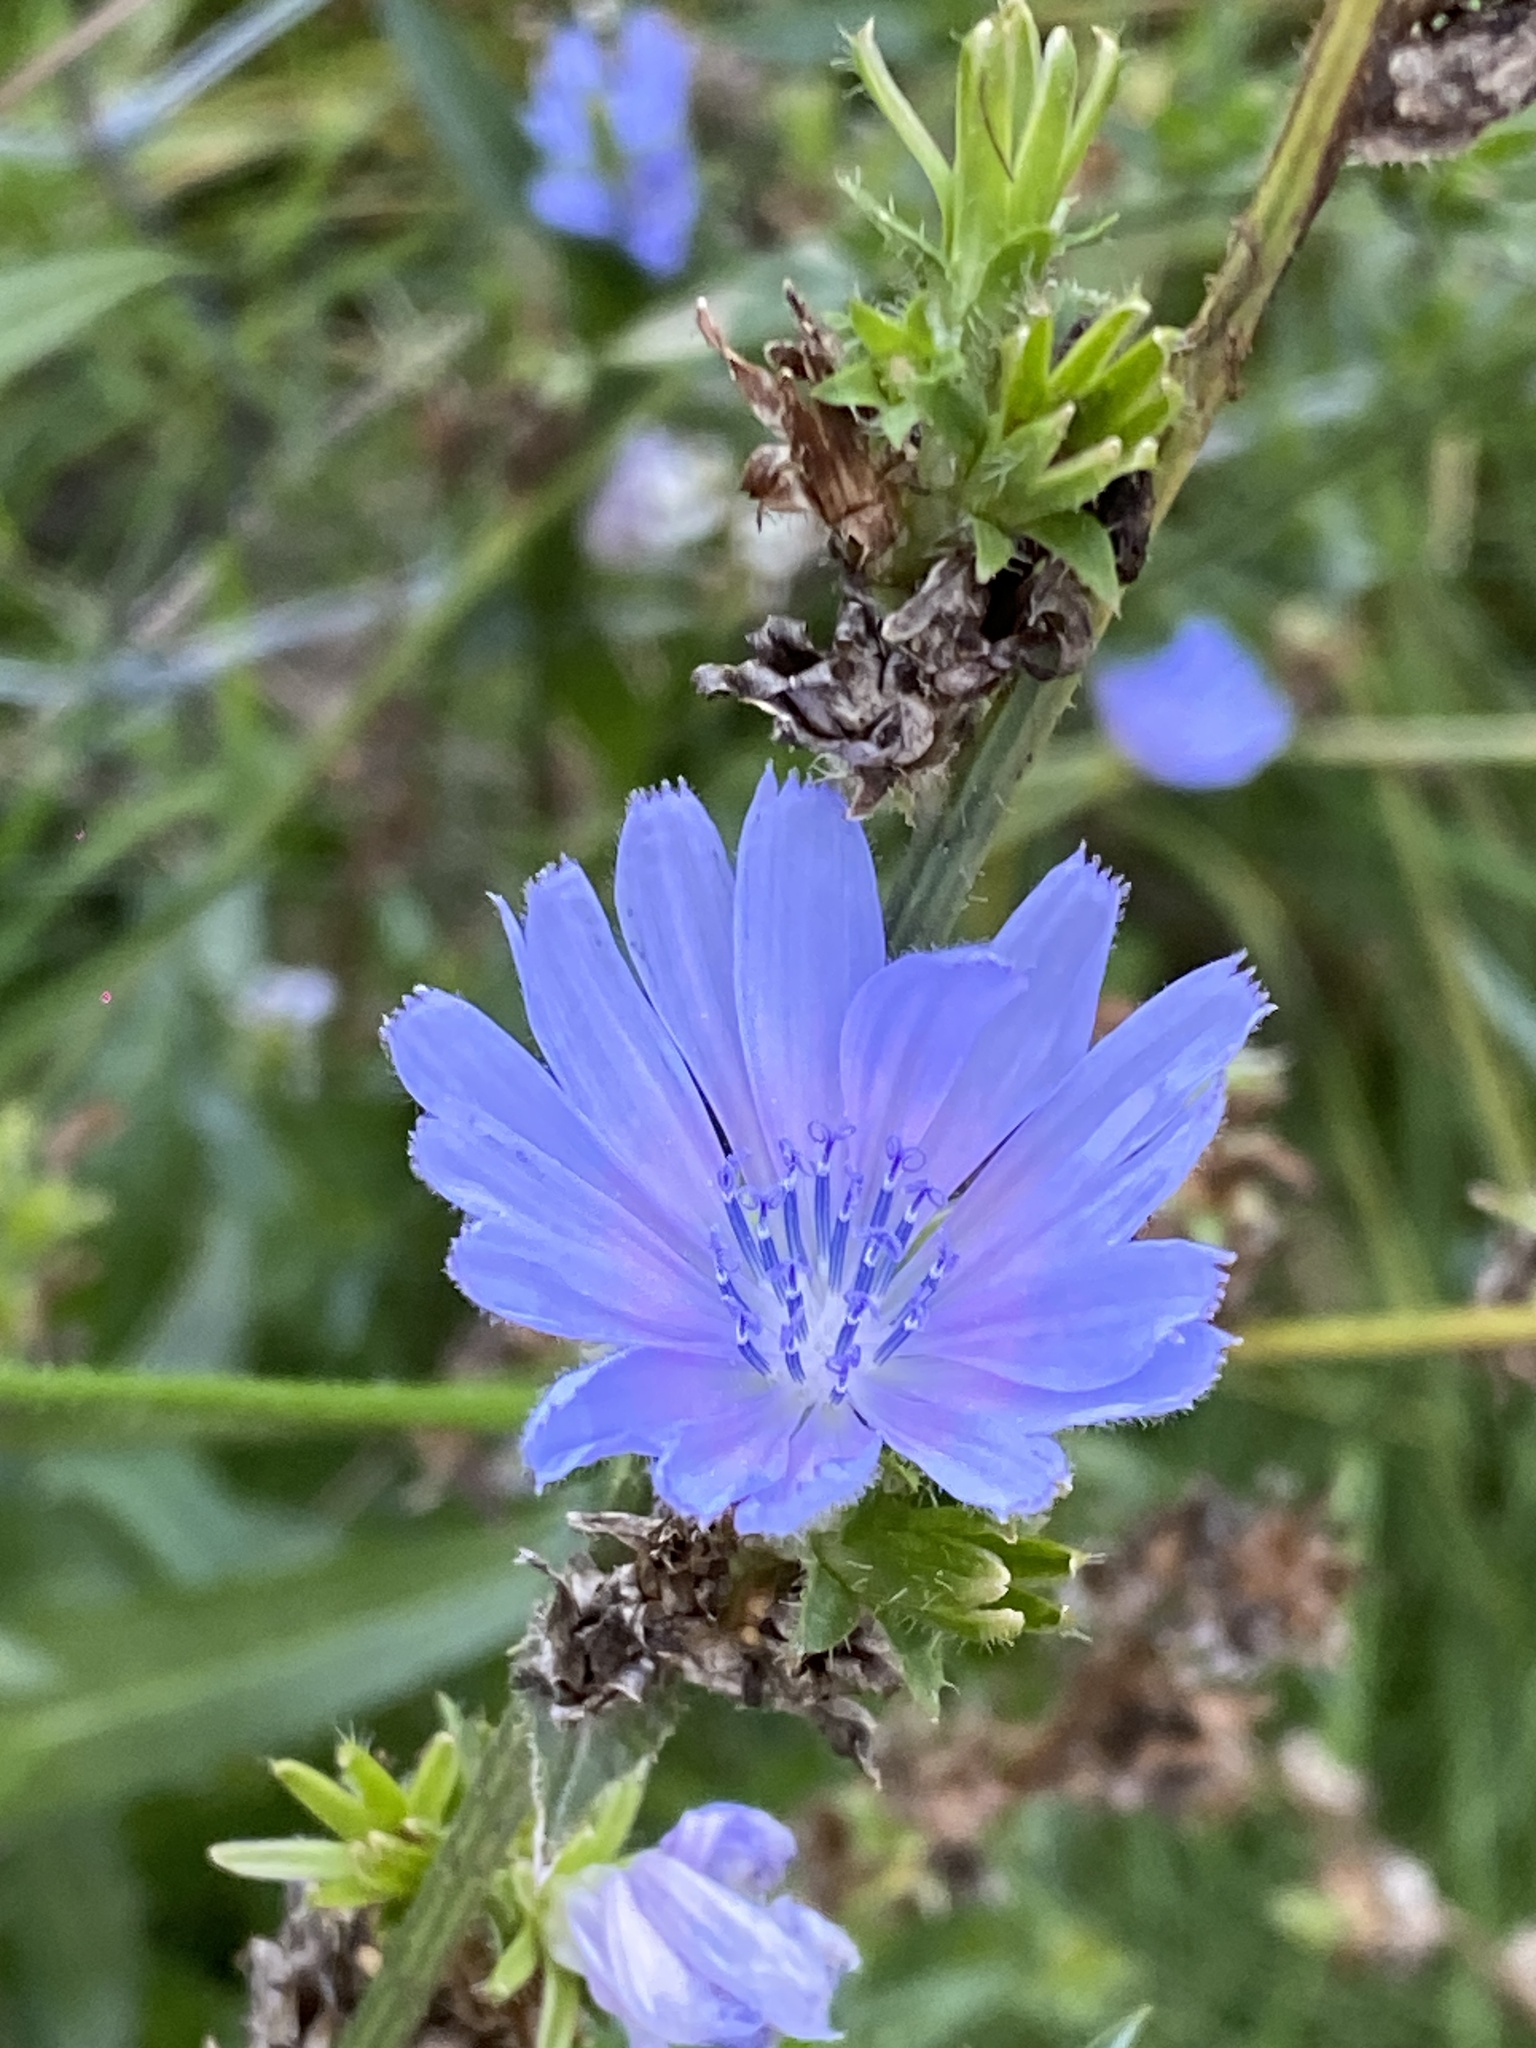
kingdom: Plantae
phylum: Tracheophyta
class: Magnoliopsida
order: Asterales
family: Asteraceae
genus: Cichorium
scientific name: Cichorium intybus
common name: Chicory
